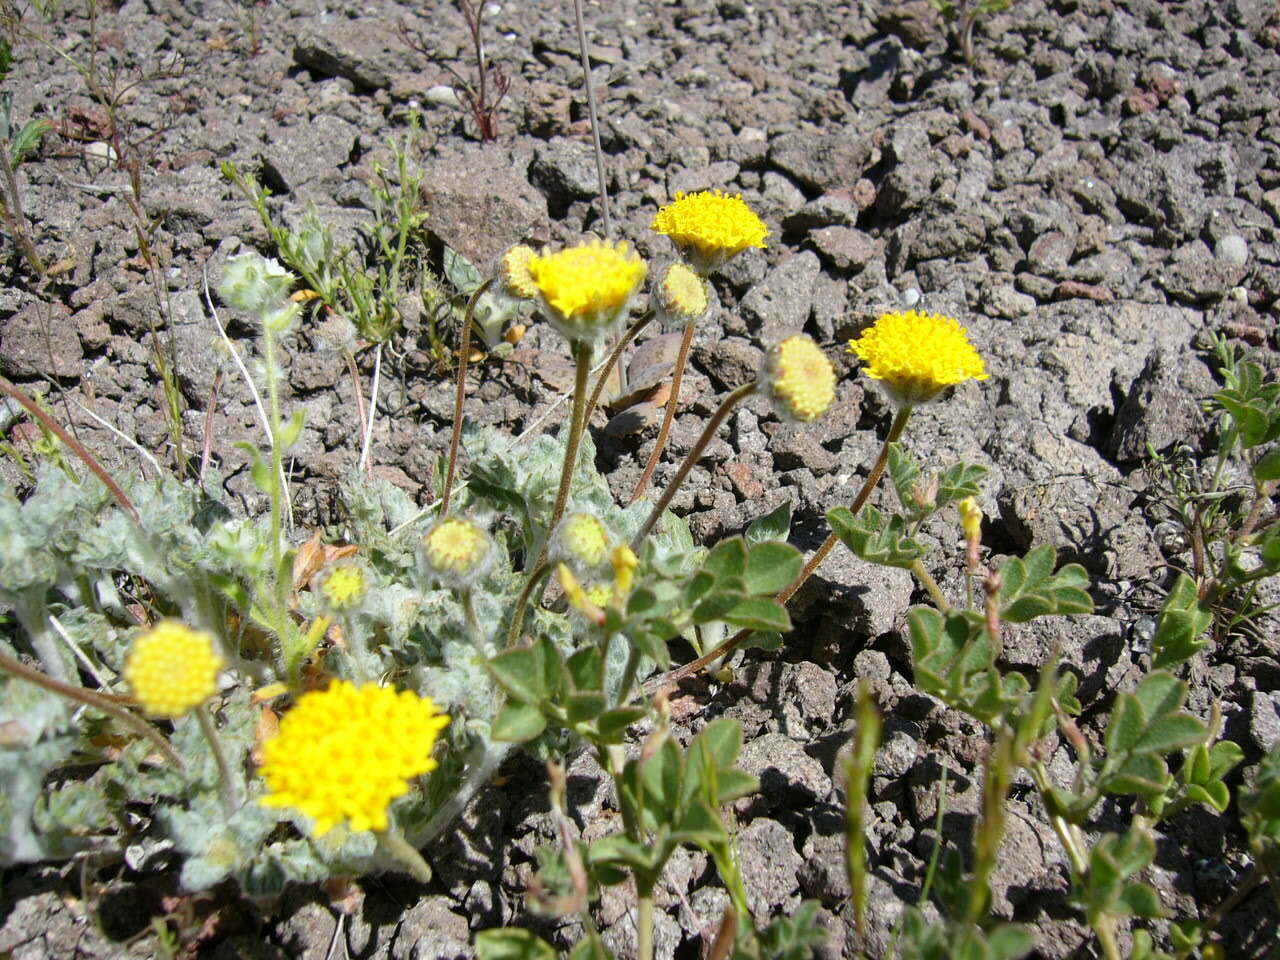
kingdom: Plantae
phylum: Tracheophyta
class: Magnoliopsida
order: Asterales
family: Asteraceae
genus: Trichoptilium
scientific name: Trichoptilium incisum
